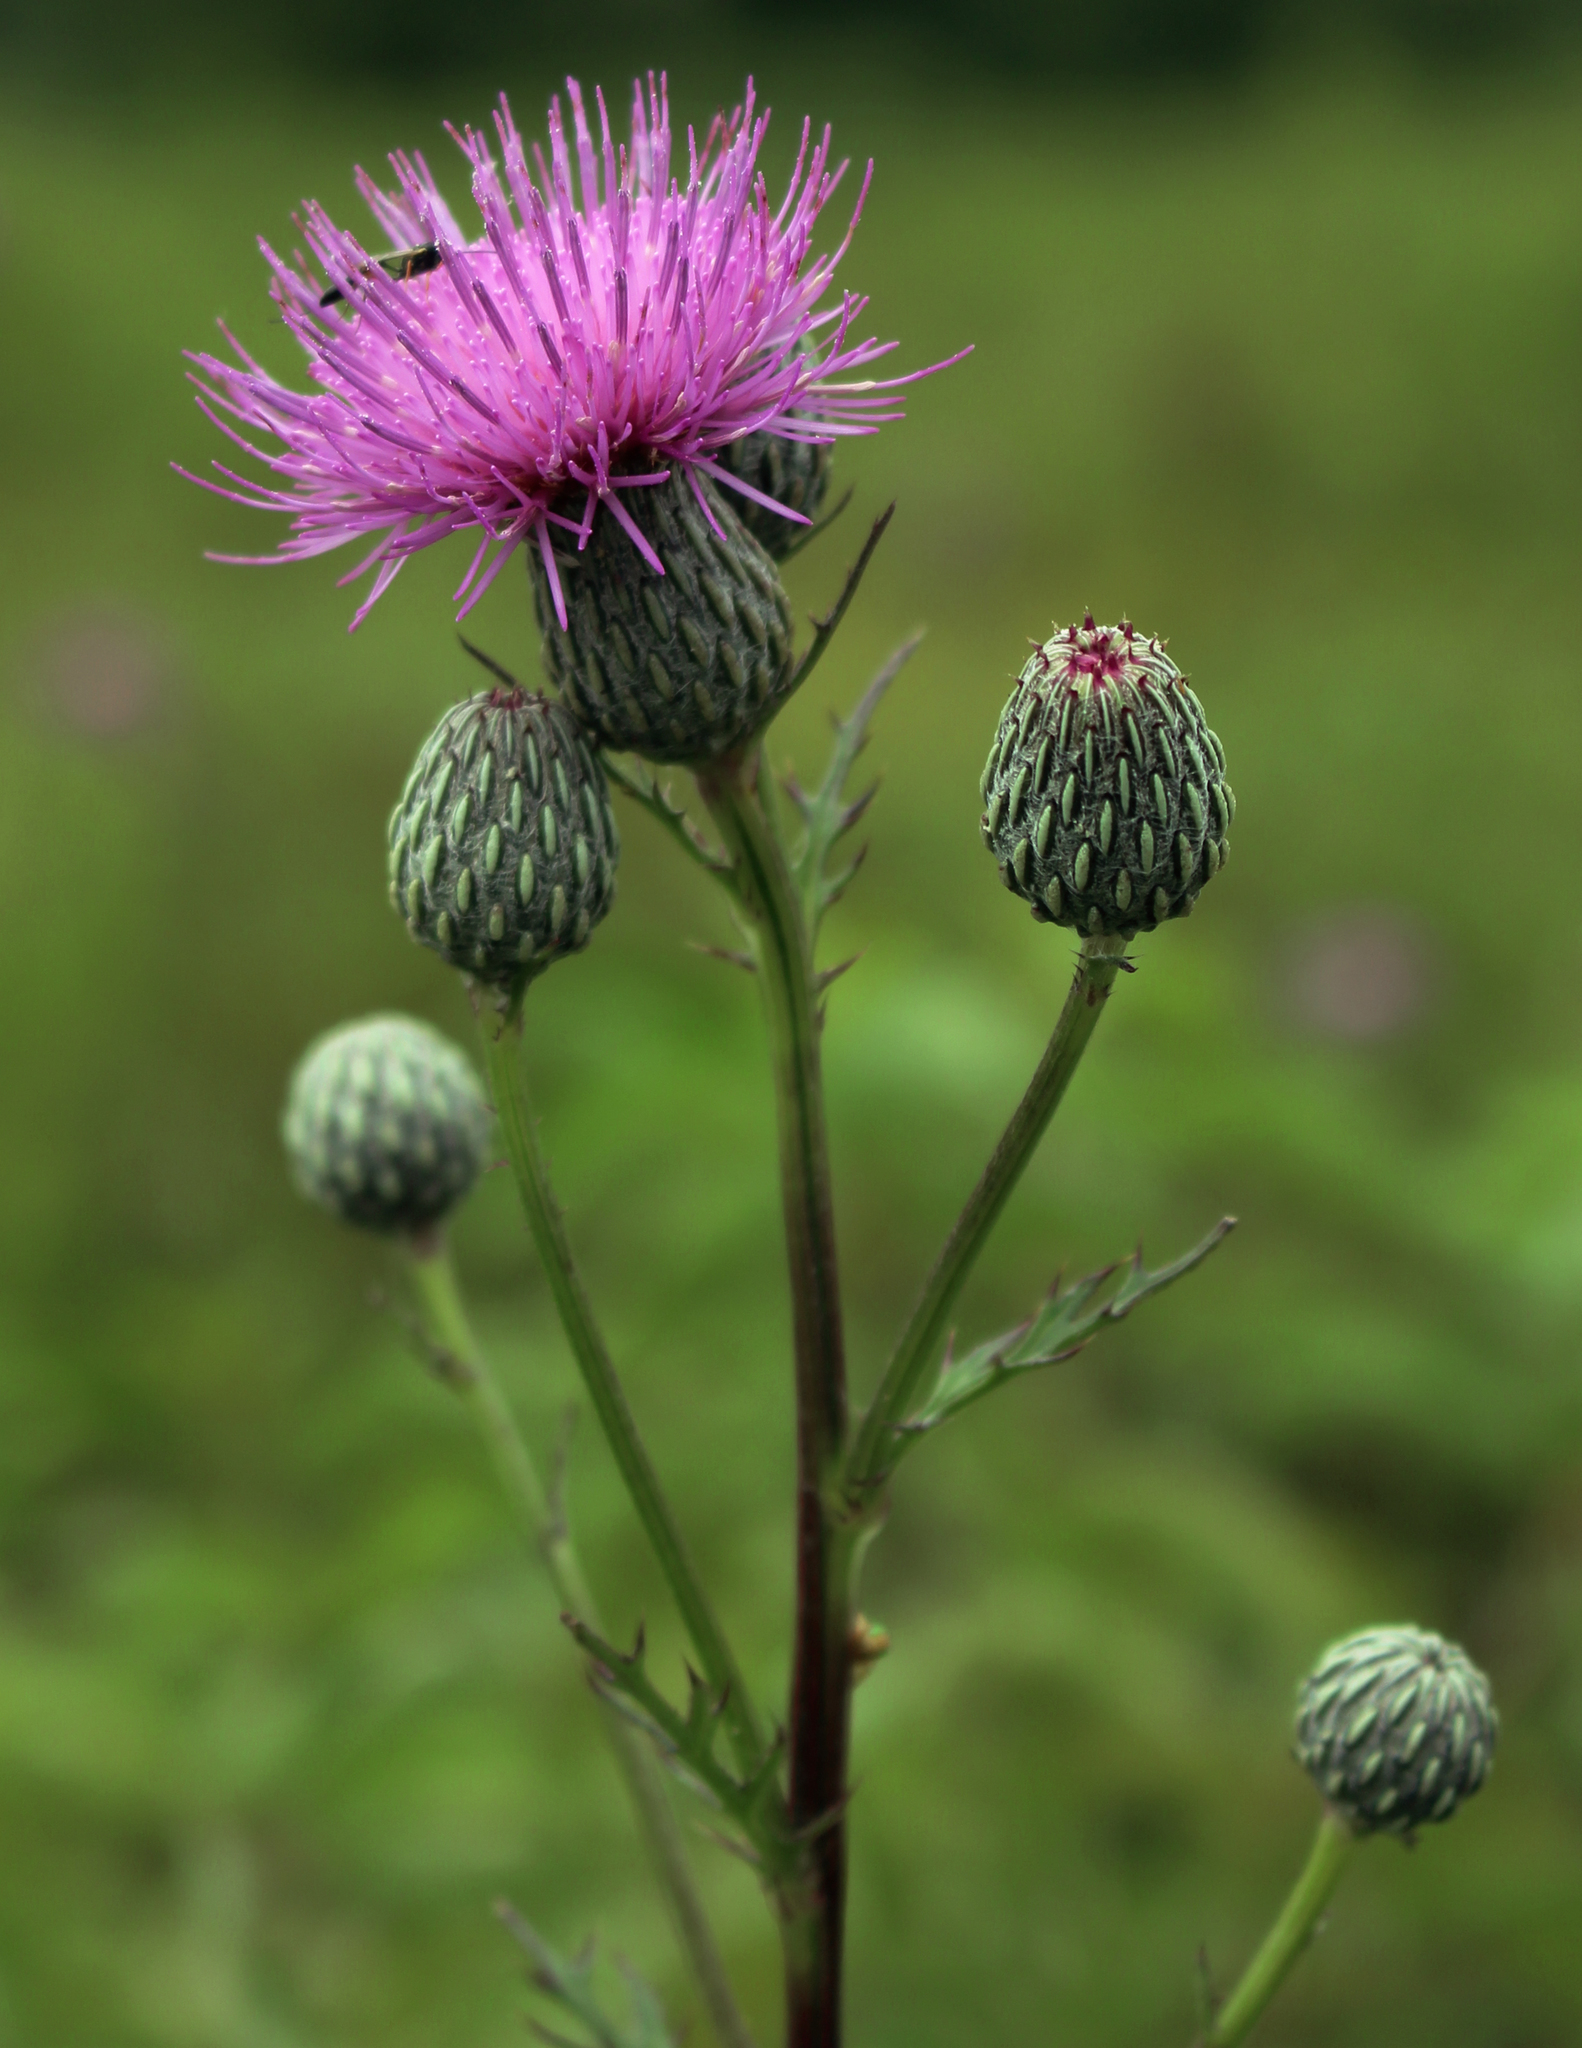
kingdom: Plantae
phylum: Tracheophyta
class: Magnoliopsida
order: Asterales
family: Asteraceae
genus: Cirsium
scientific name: Cirsium muticum
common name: Dunce-nettle
